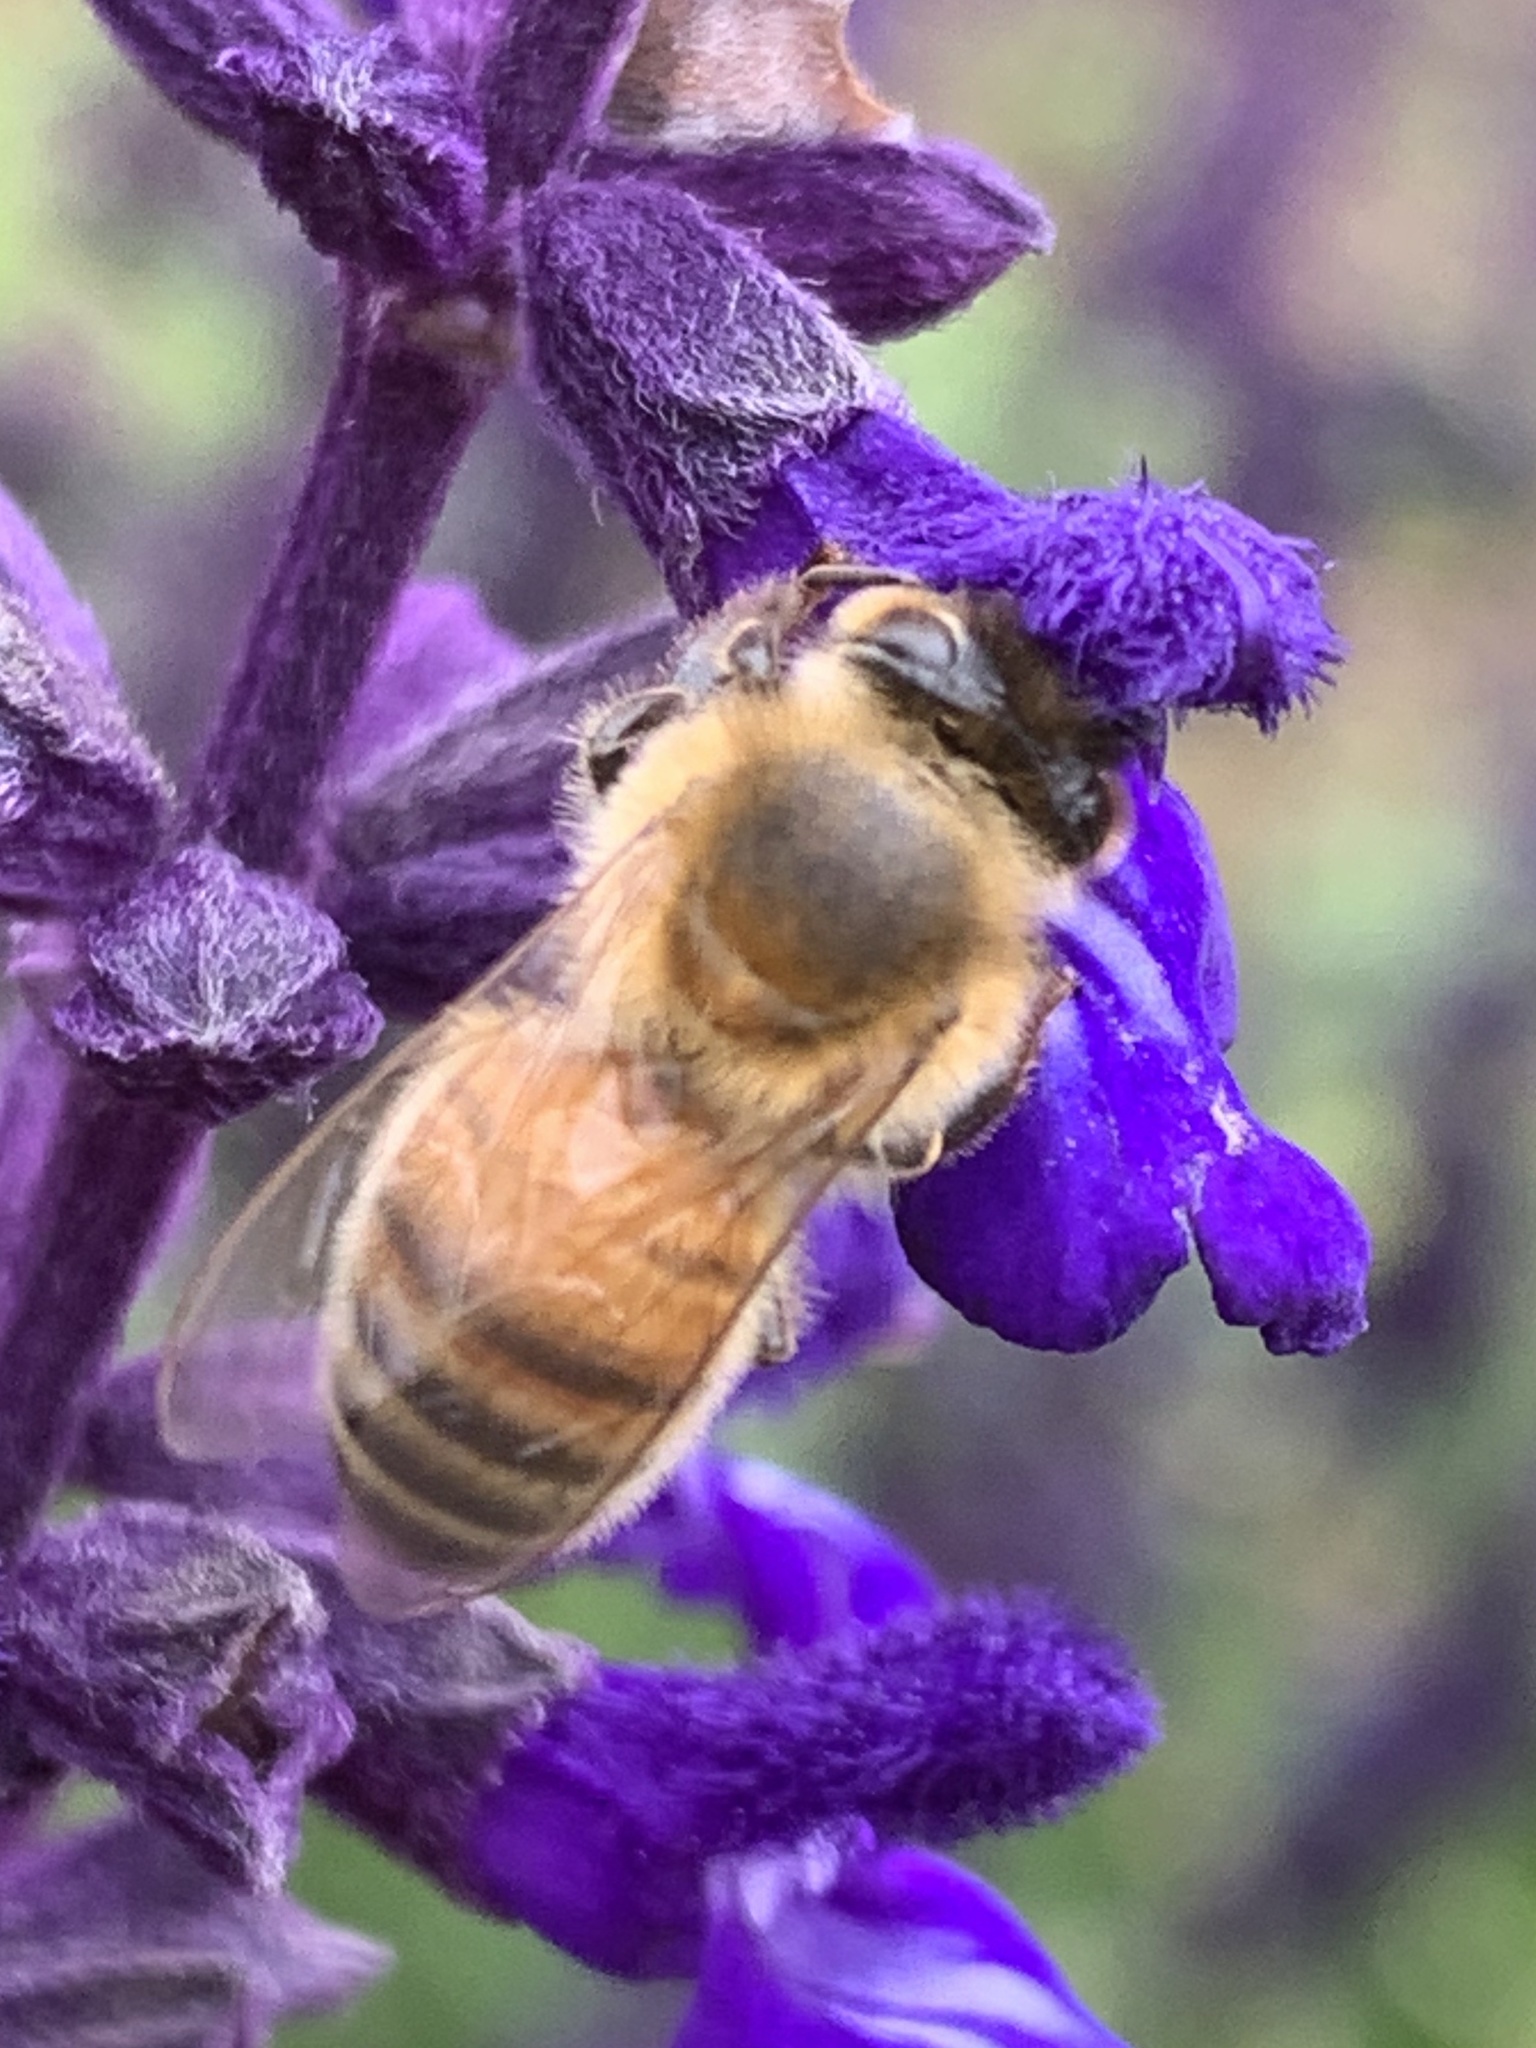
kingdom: Animalia
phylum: Arthropoda
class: Insecta
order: Hymenoptera
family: Apidae
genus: Apis
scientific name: Apis mellifera
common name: Honey bee
